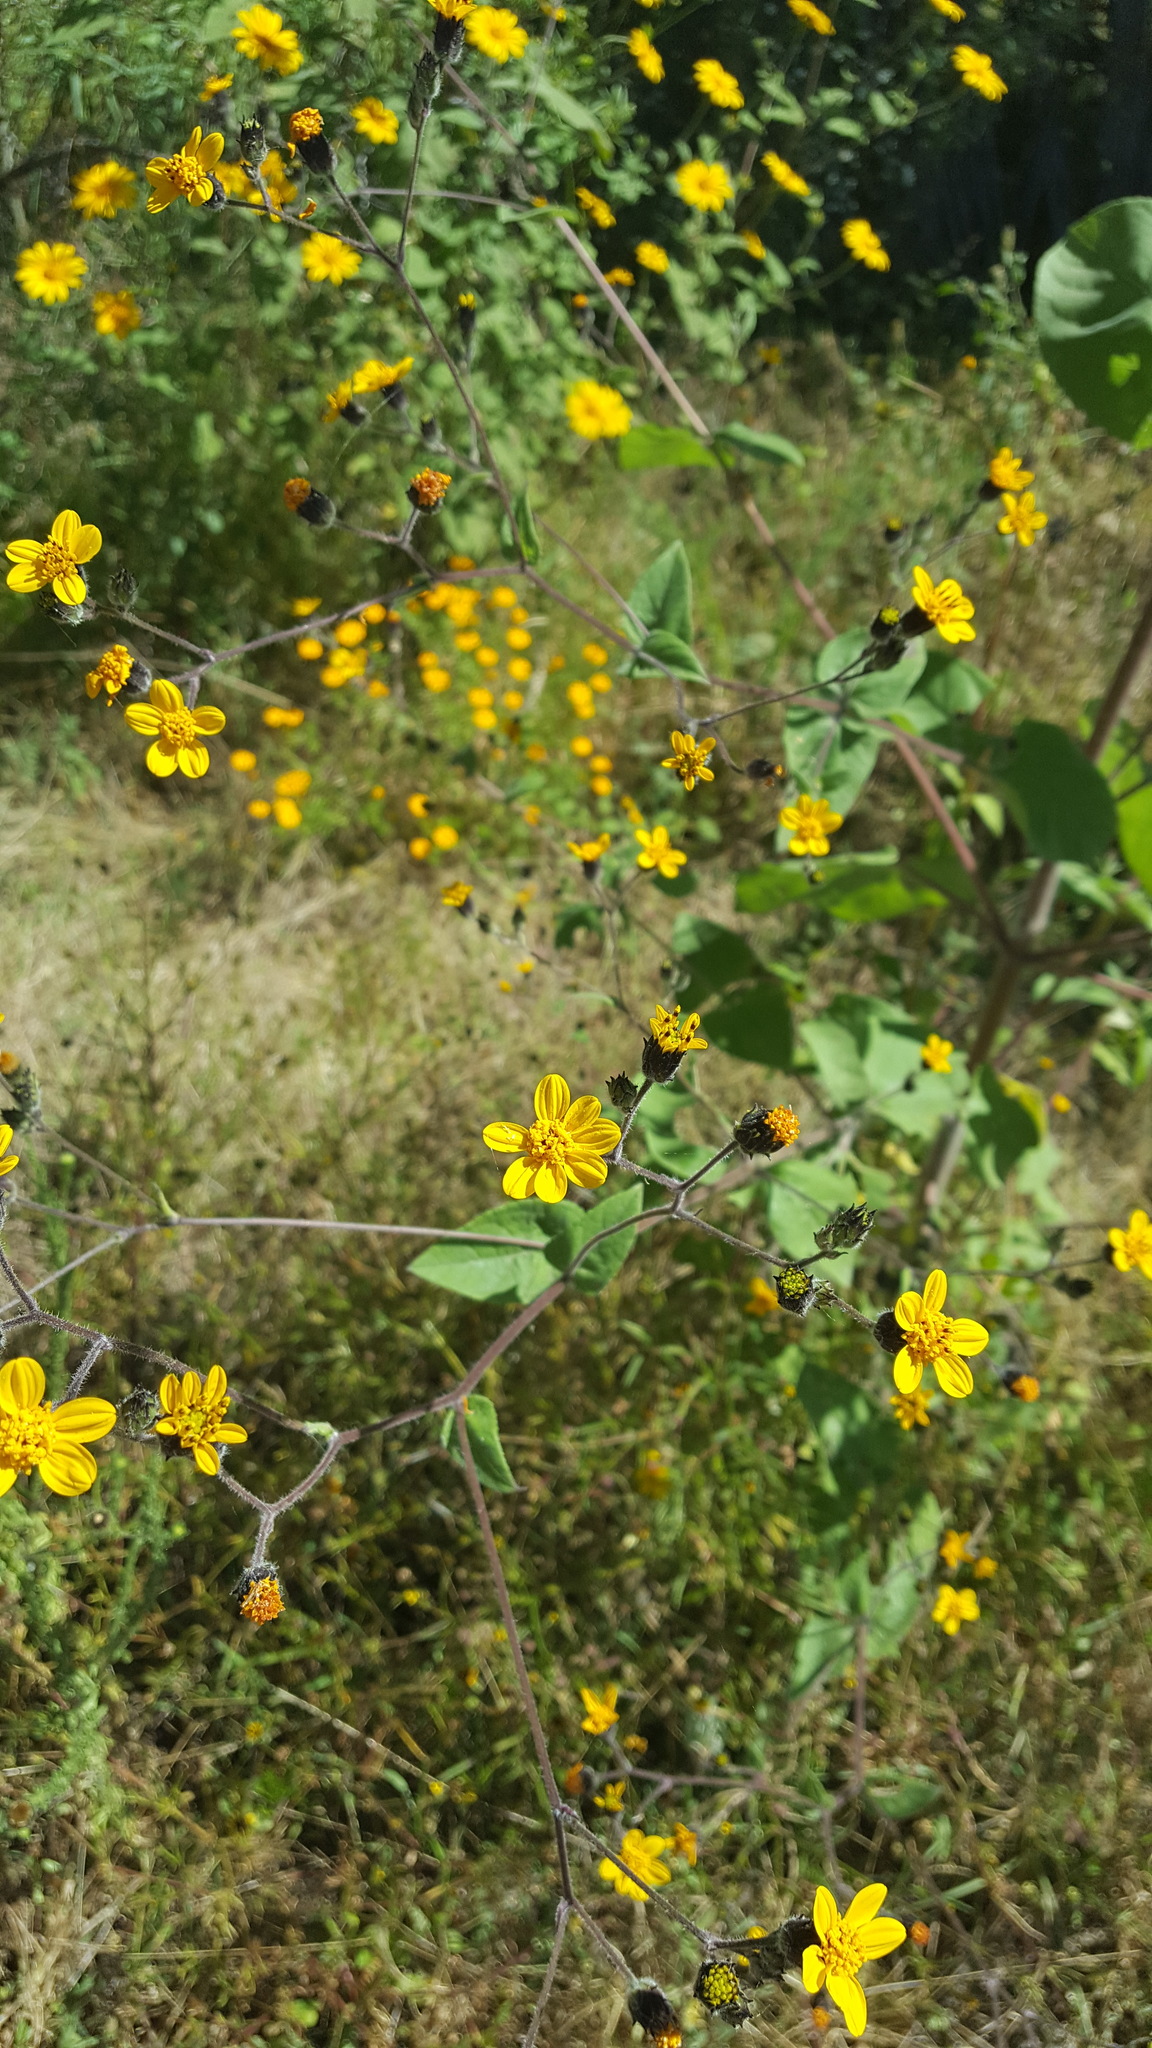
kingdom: Plantae
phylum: Tracheophyta
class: Magnoliopsida
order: Asterales
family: Asteraceae
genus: Simsia
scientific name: Simsia lagasceiformis
